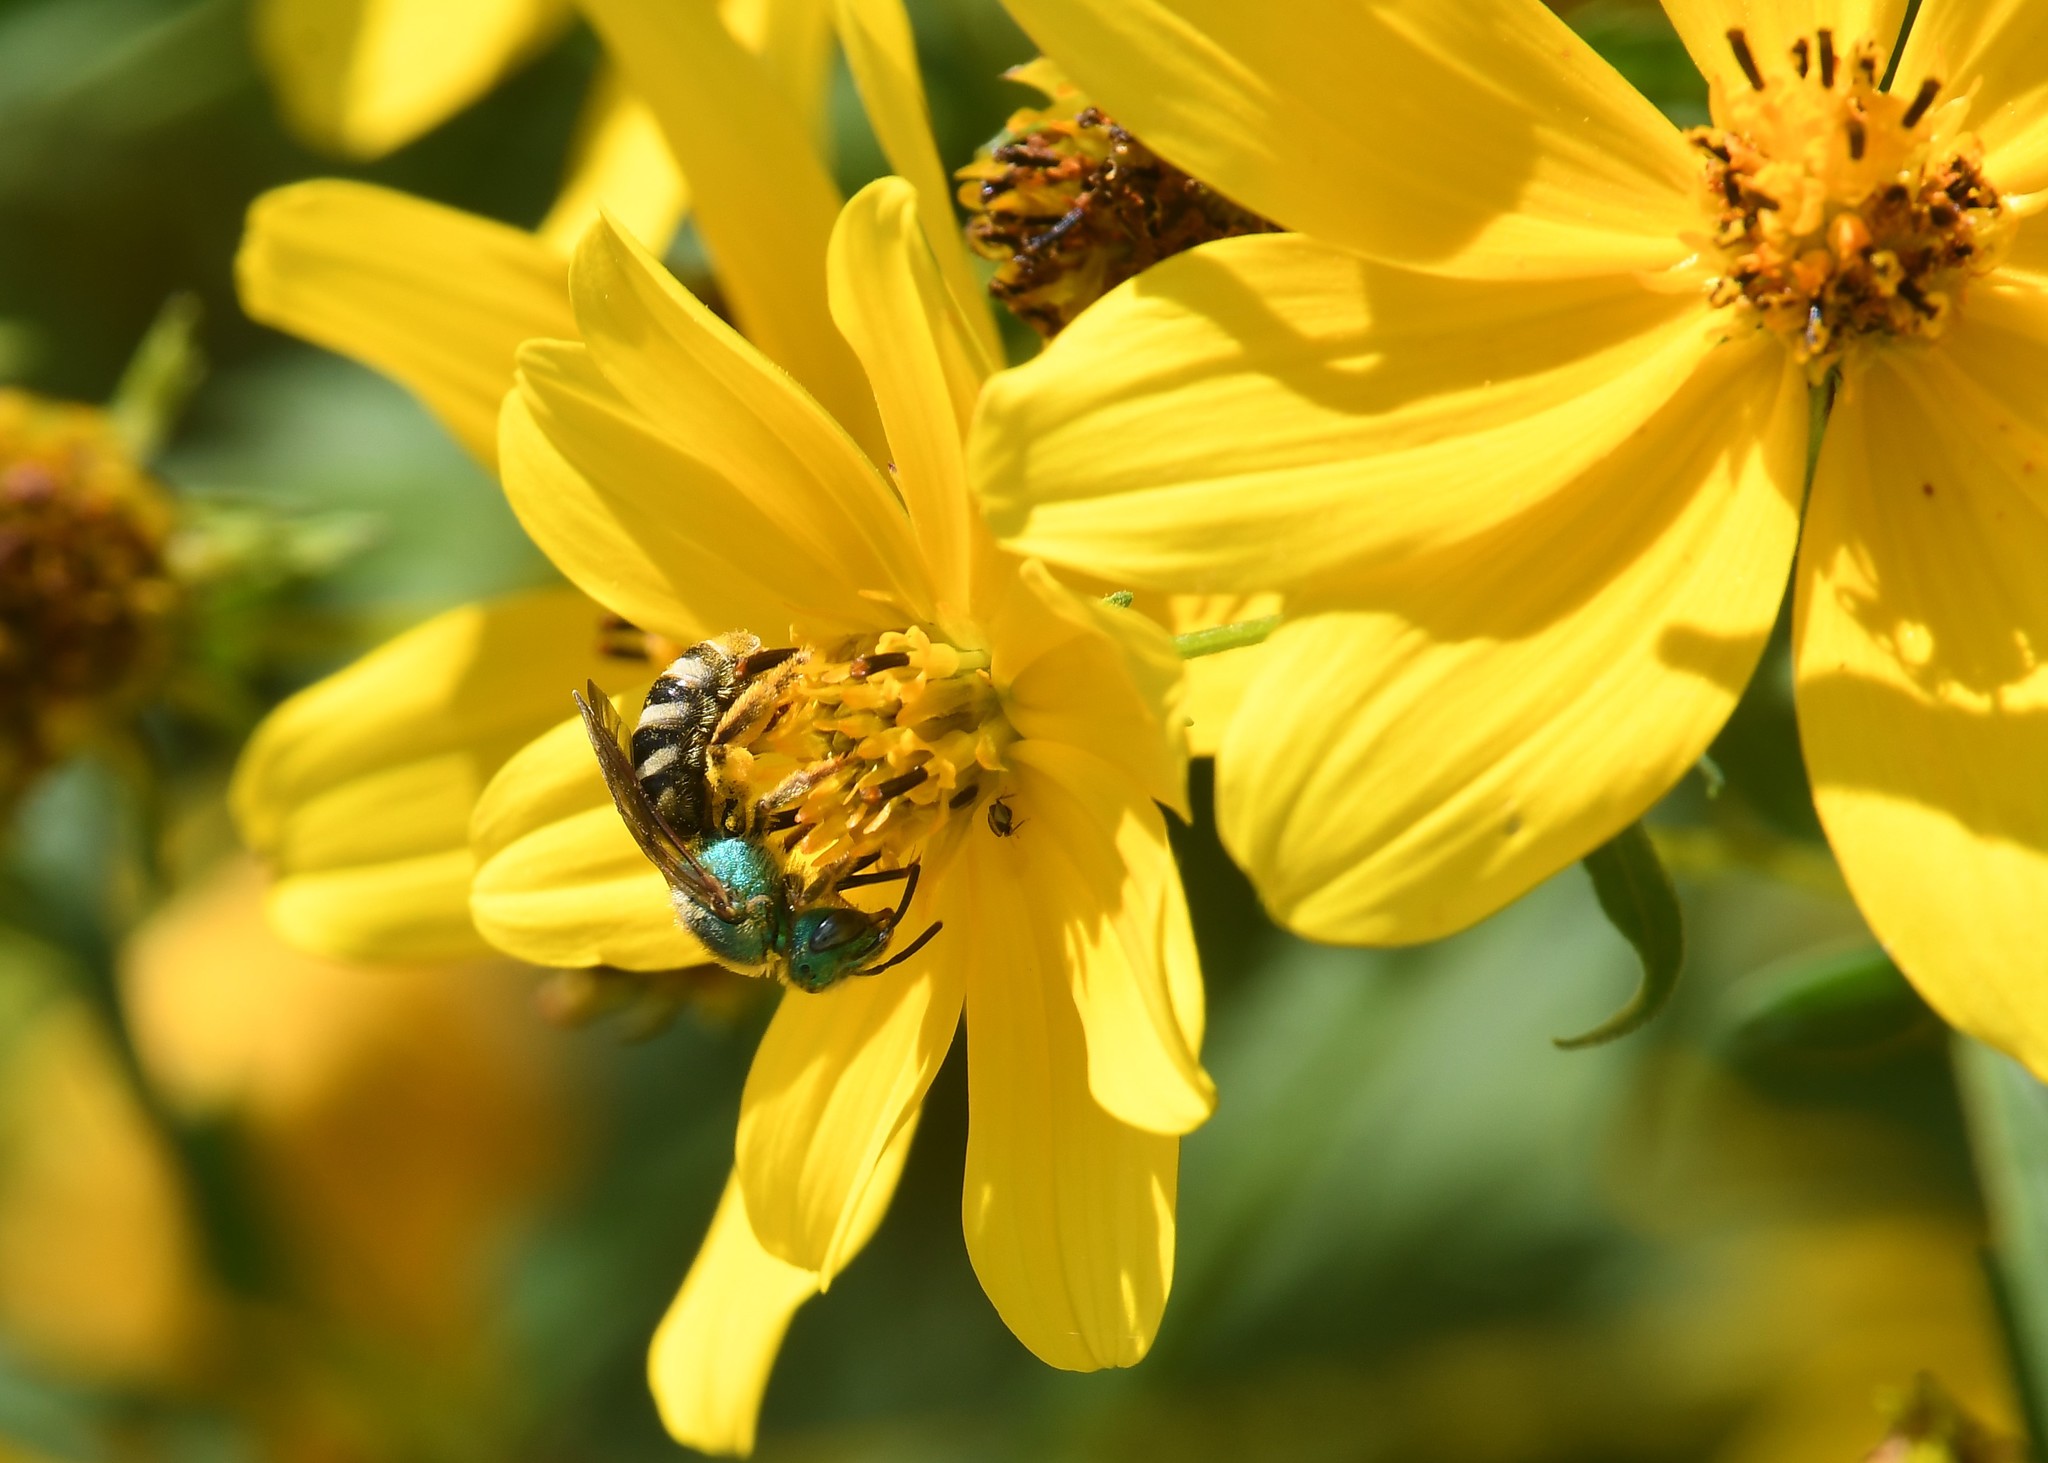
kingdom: Animalia
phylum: Arthropoda
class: Insecta
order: Hymenoptera
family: Halictidae
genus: Agapostemon
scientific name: Agapostemon virescens
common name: Bicolored striped sweat bee
